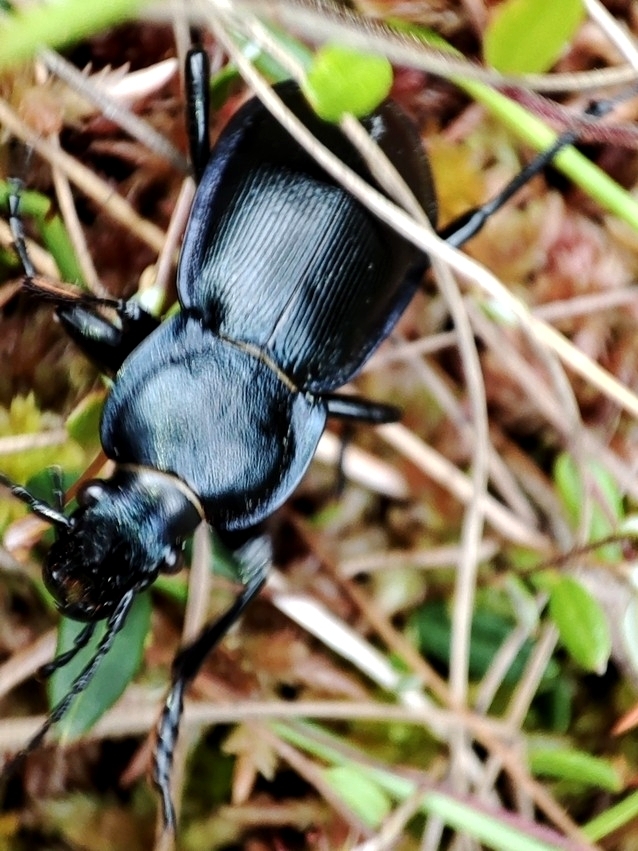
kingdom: Animalia
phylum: Arthropoda
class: Insecta
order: Coleoptera
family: Carabidae
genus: Carabus
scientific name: Carabus zawadzkii
